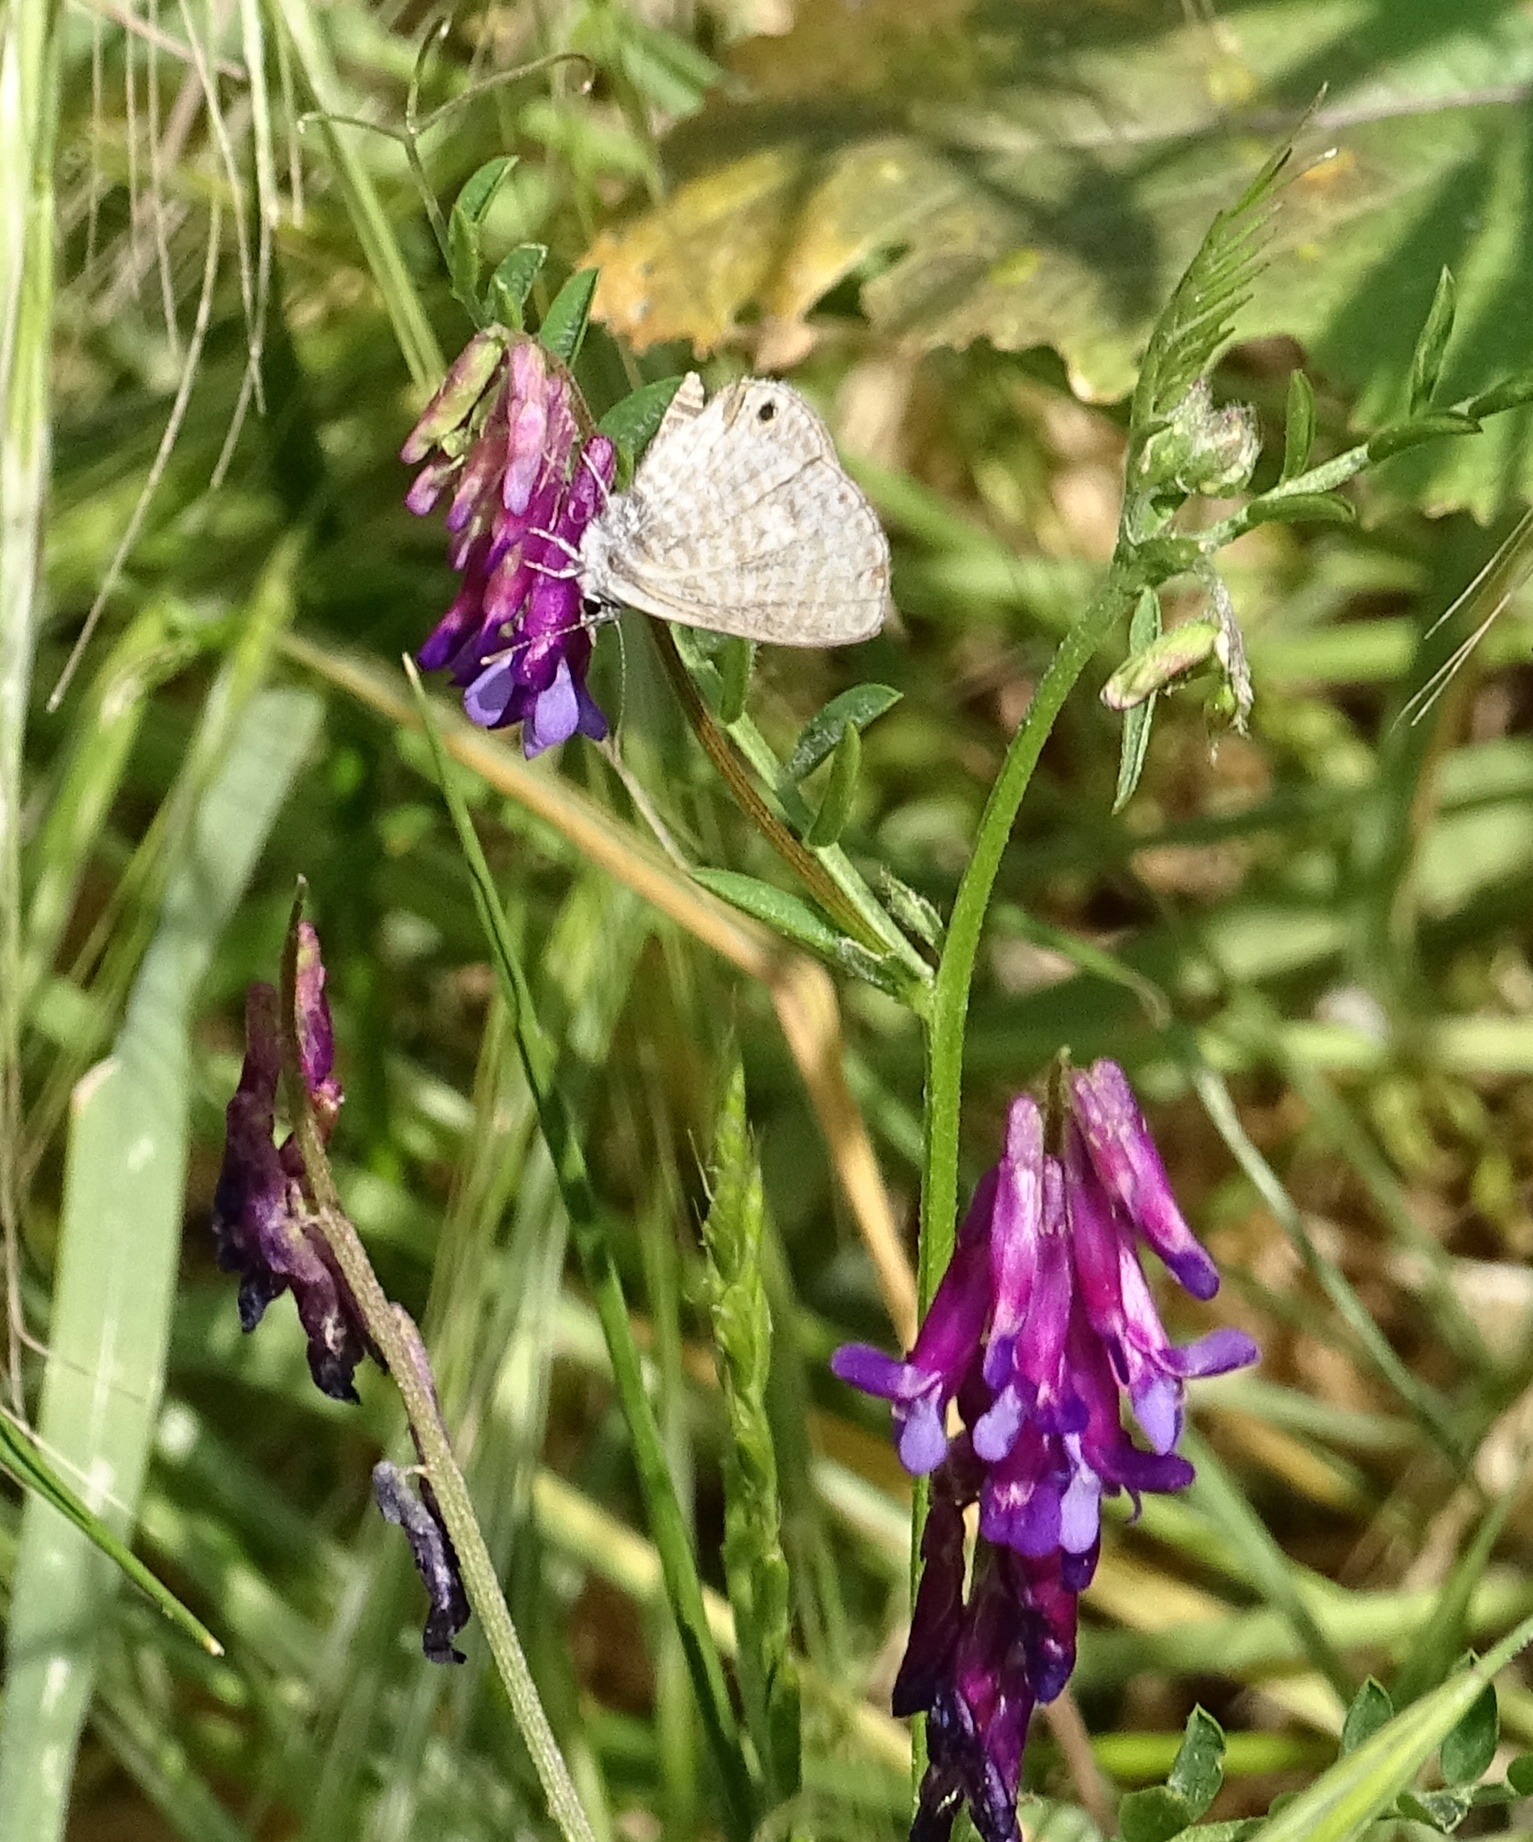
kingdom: Animalia
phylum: Arthropoda
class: Insecta
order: Lepidoptera
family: Lycaenidae
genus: Leptotes
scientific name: Leptotes marina
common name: Marine blue
